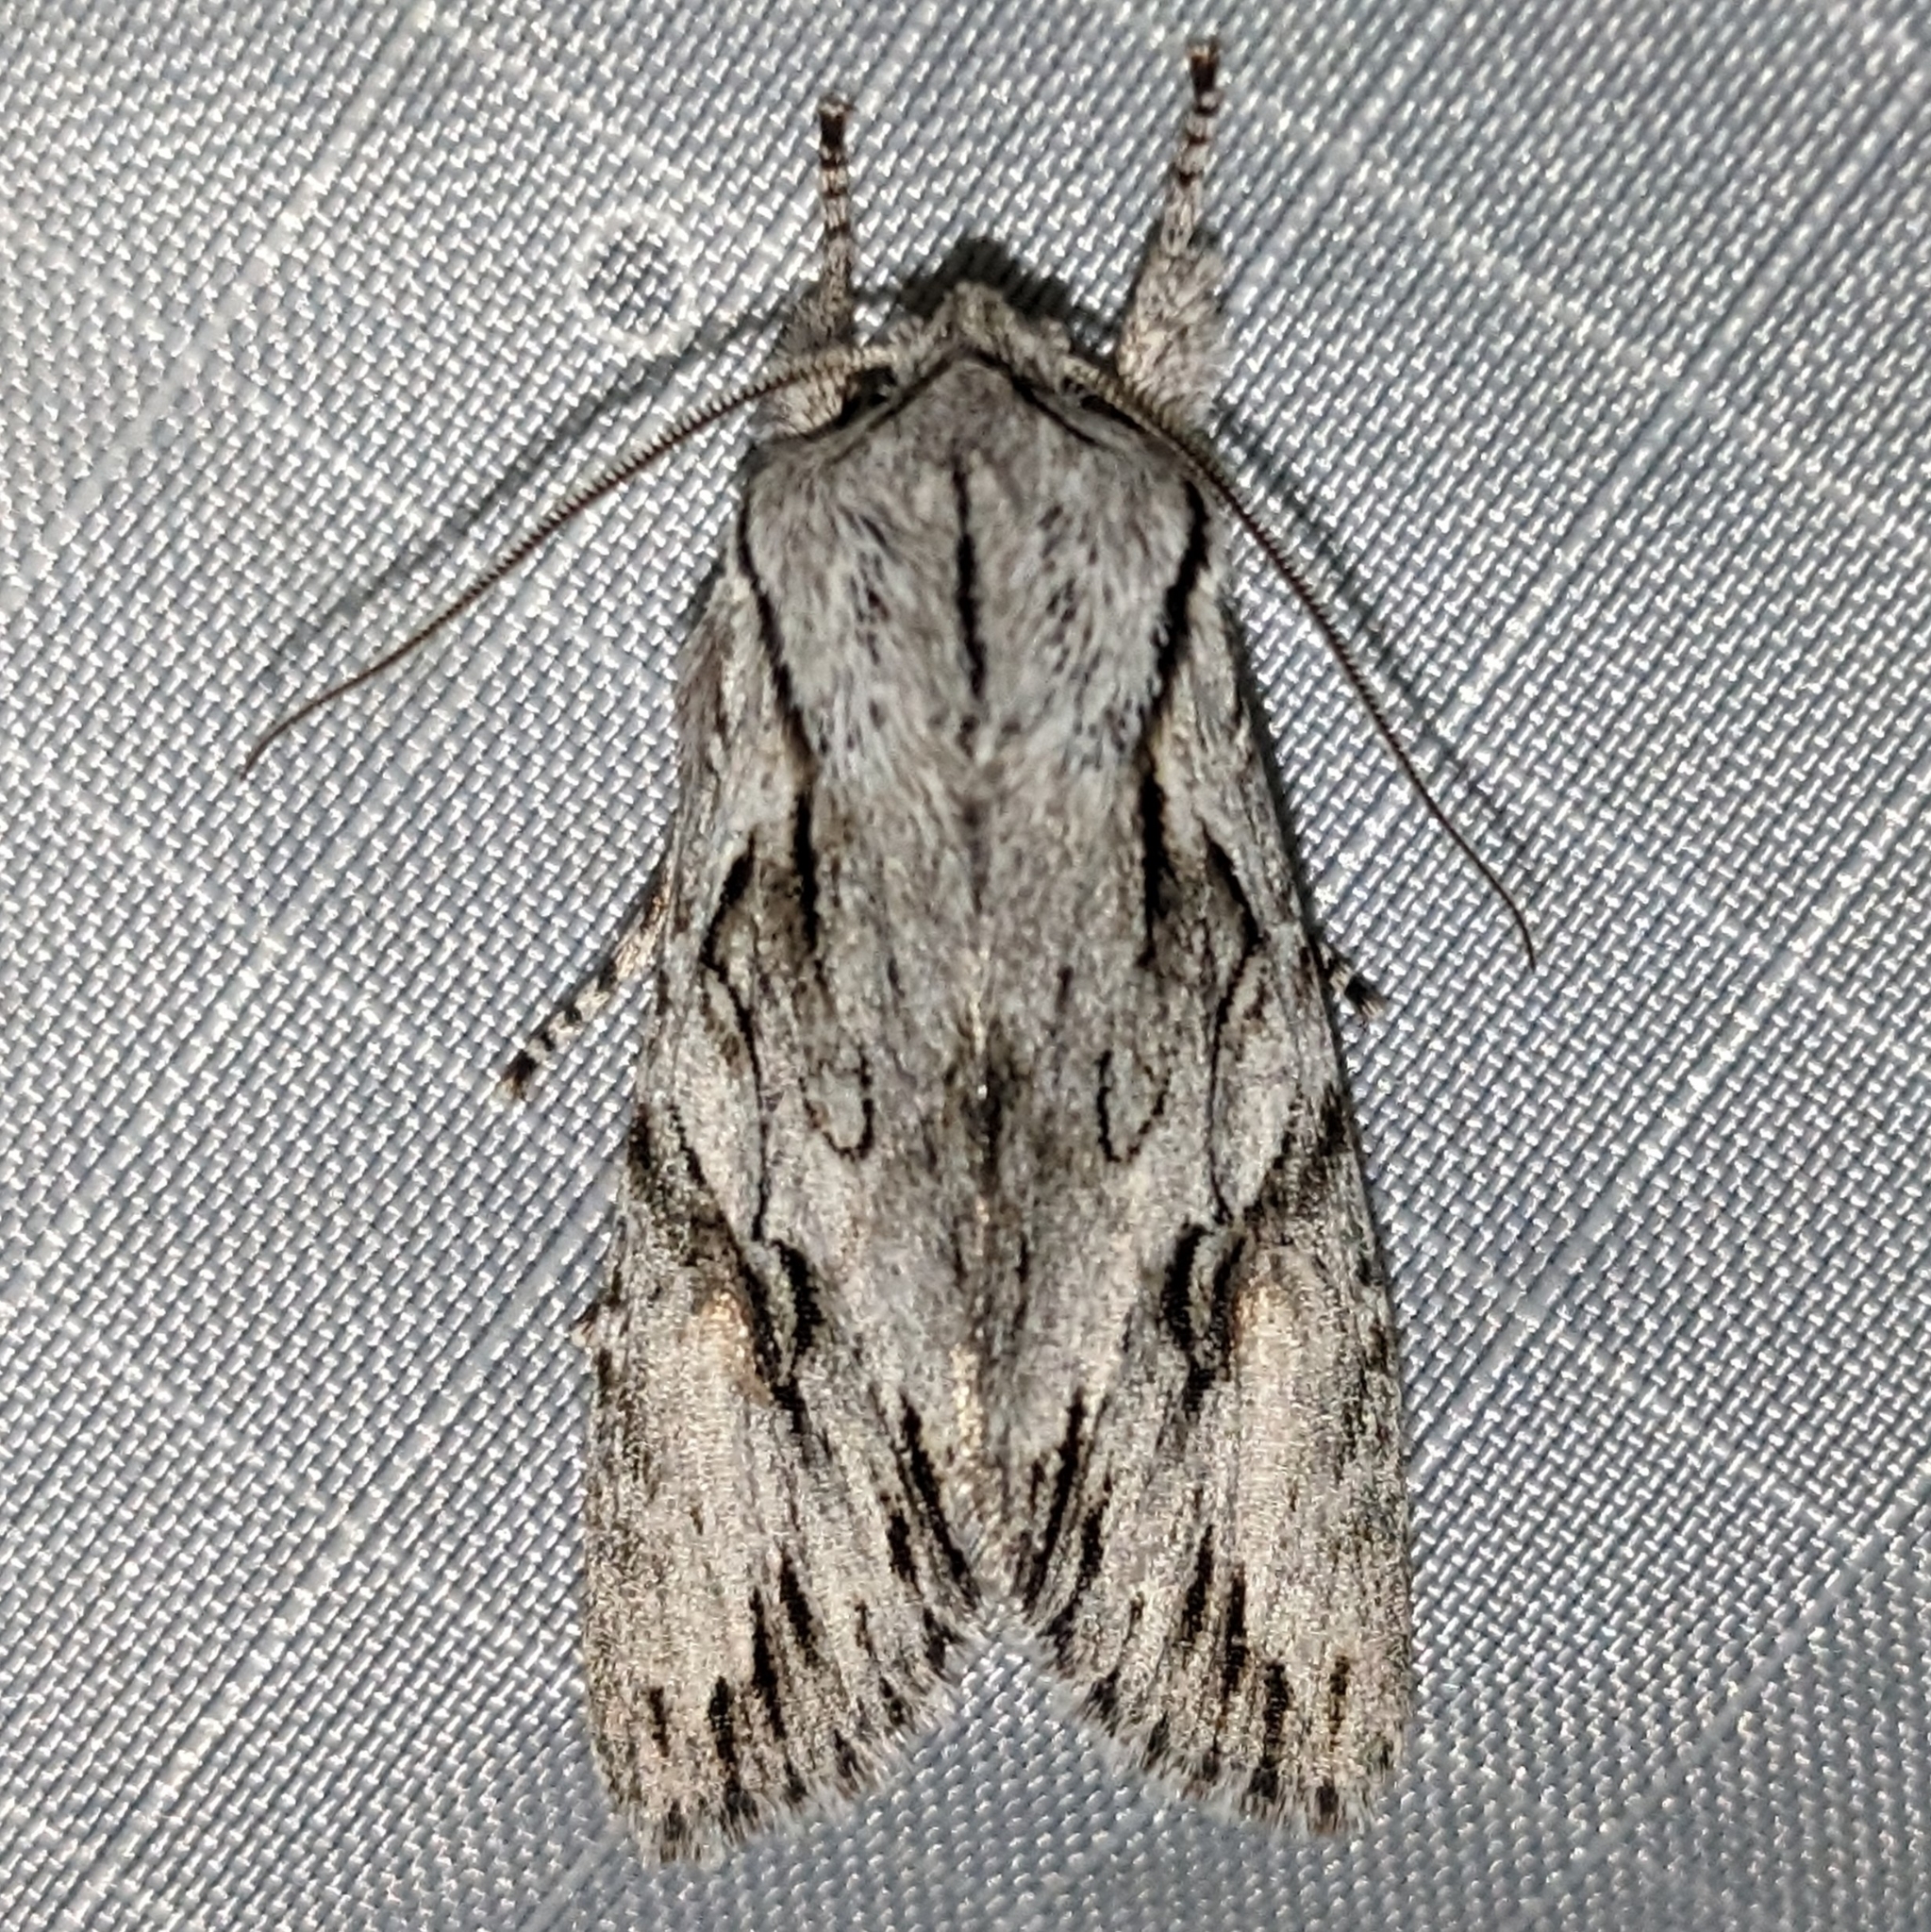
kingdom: Animalia
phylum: Arthropoda
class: Insecta
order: Lepidoptera
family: Noctuidae
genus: Egira
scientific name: Egira crucialis
